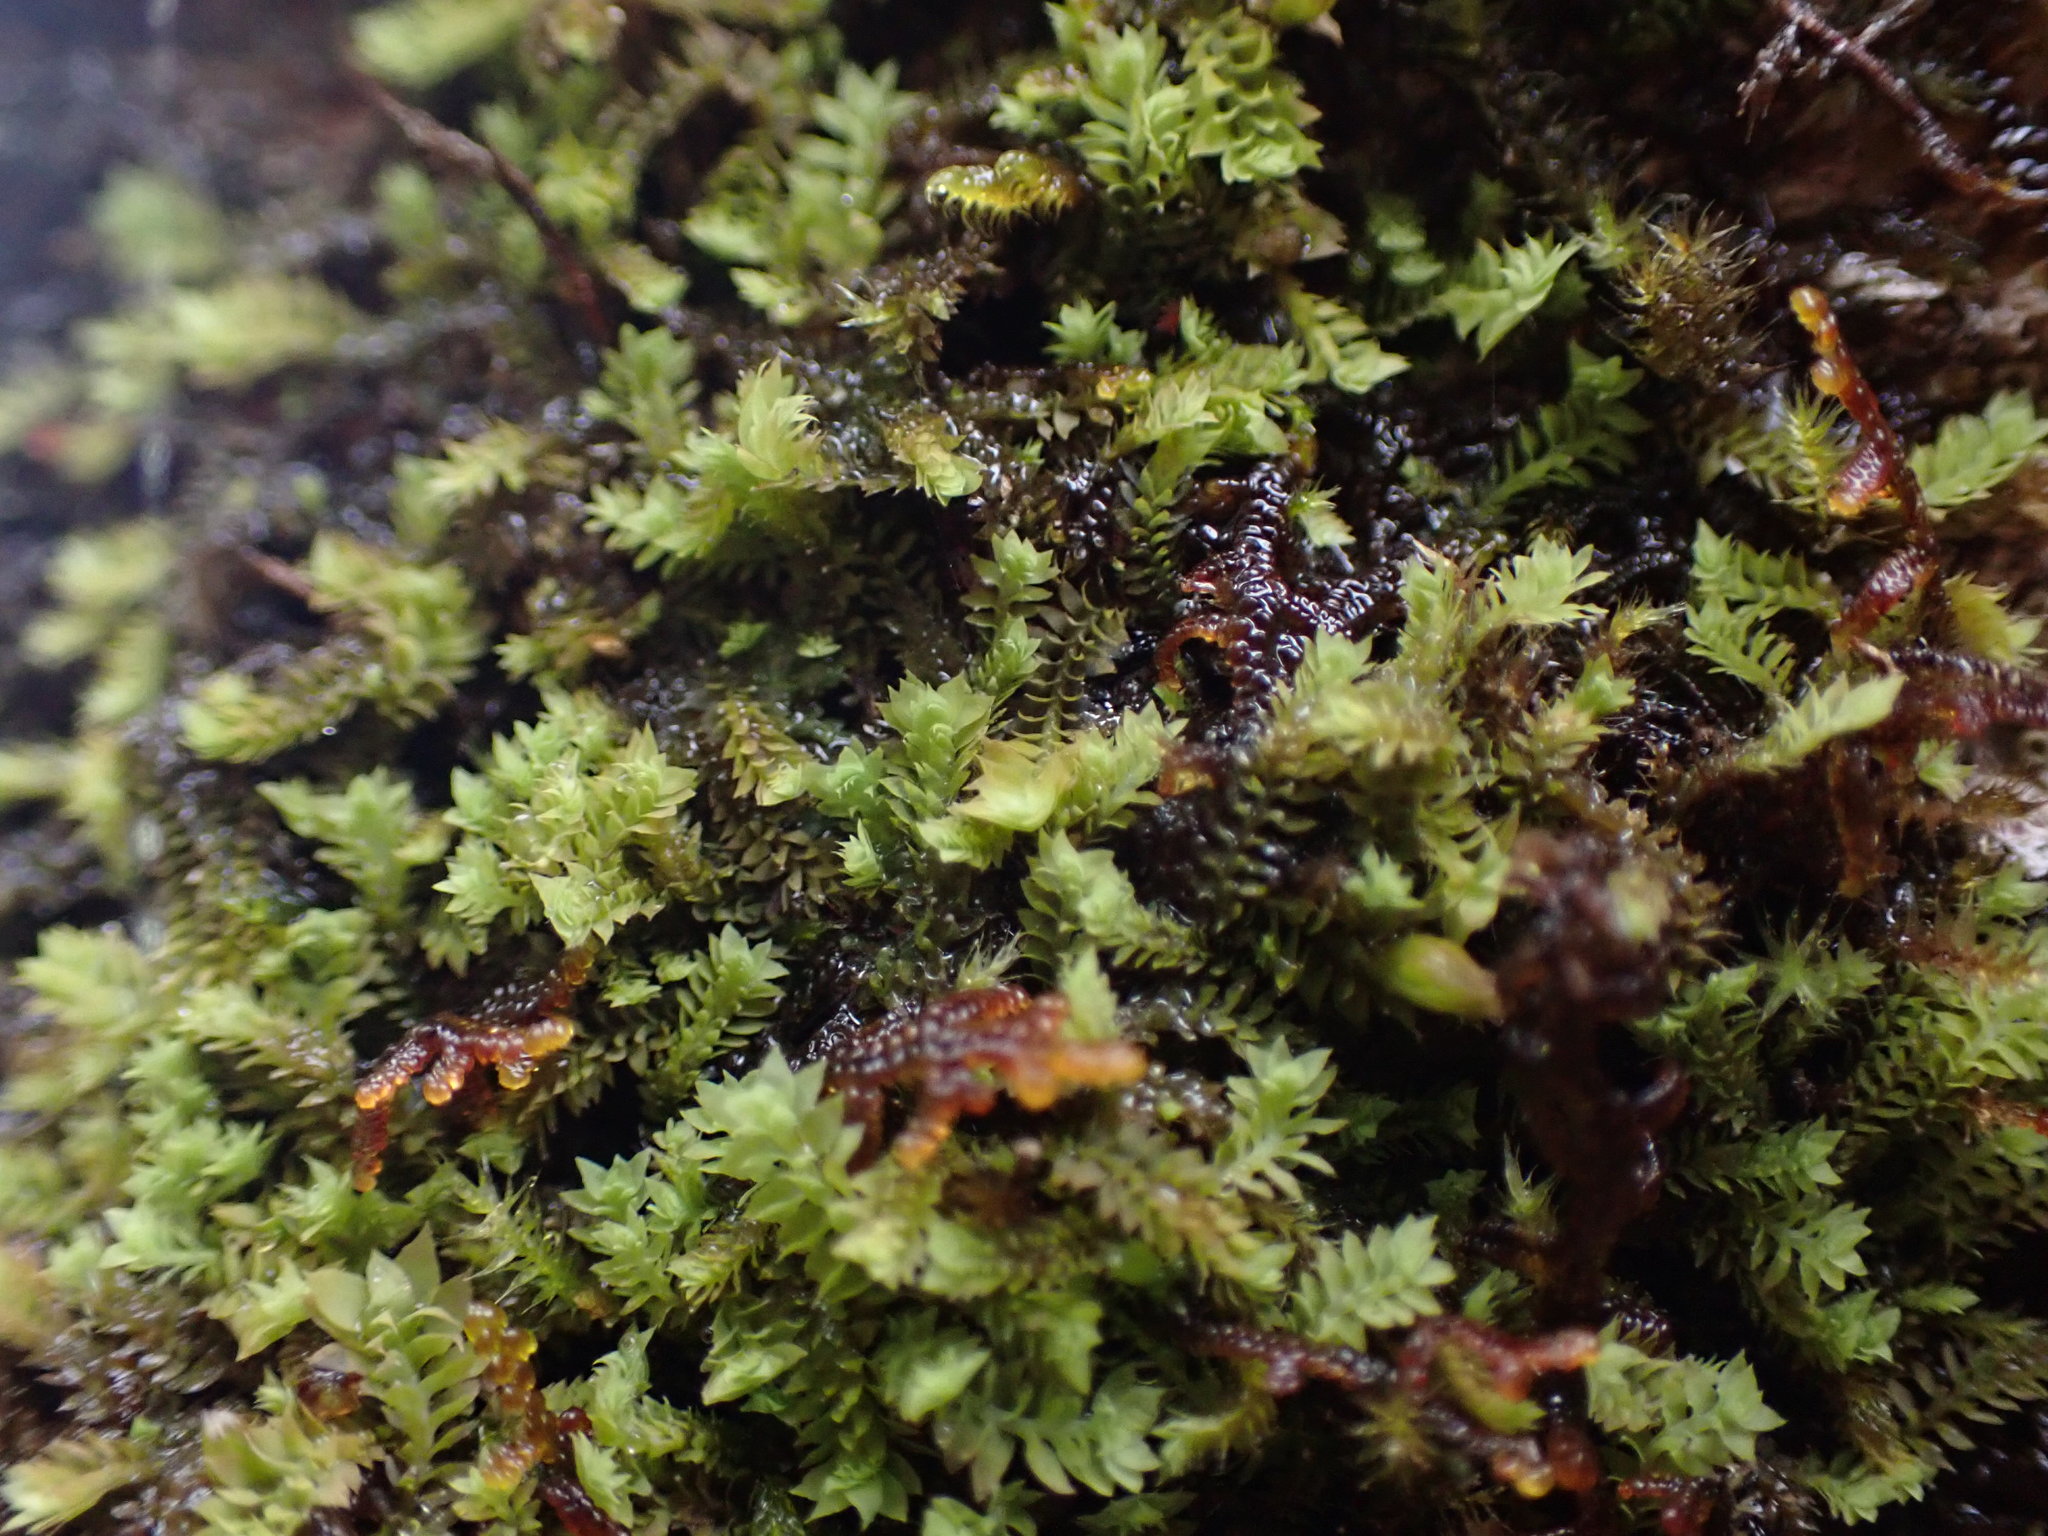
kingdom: Plantae
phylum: Marchantiophyta
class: Jungermanniopsida
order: Jungermanniales
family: Scapaniaceae
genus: Douinia
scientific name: Douinia ovata
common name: Waxy earwort
